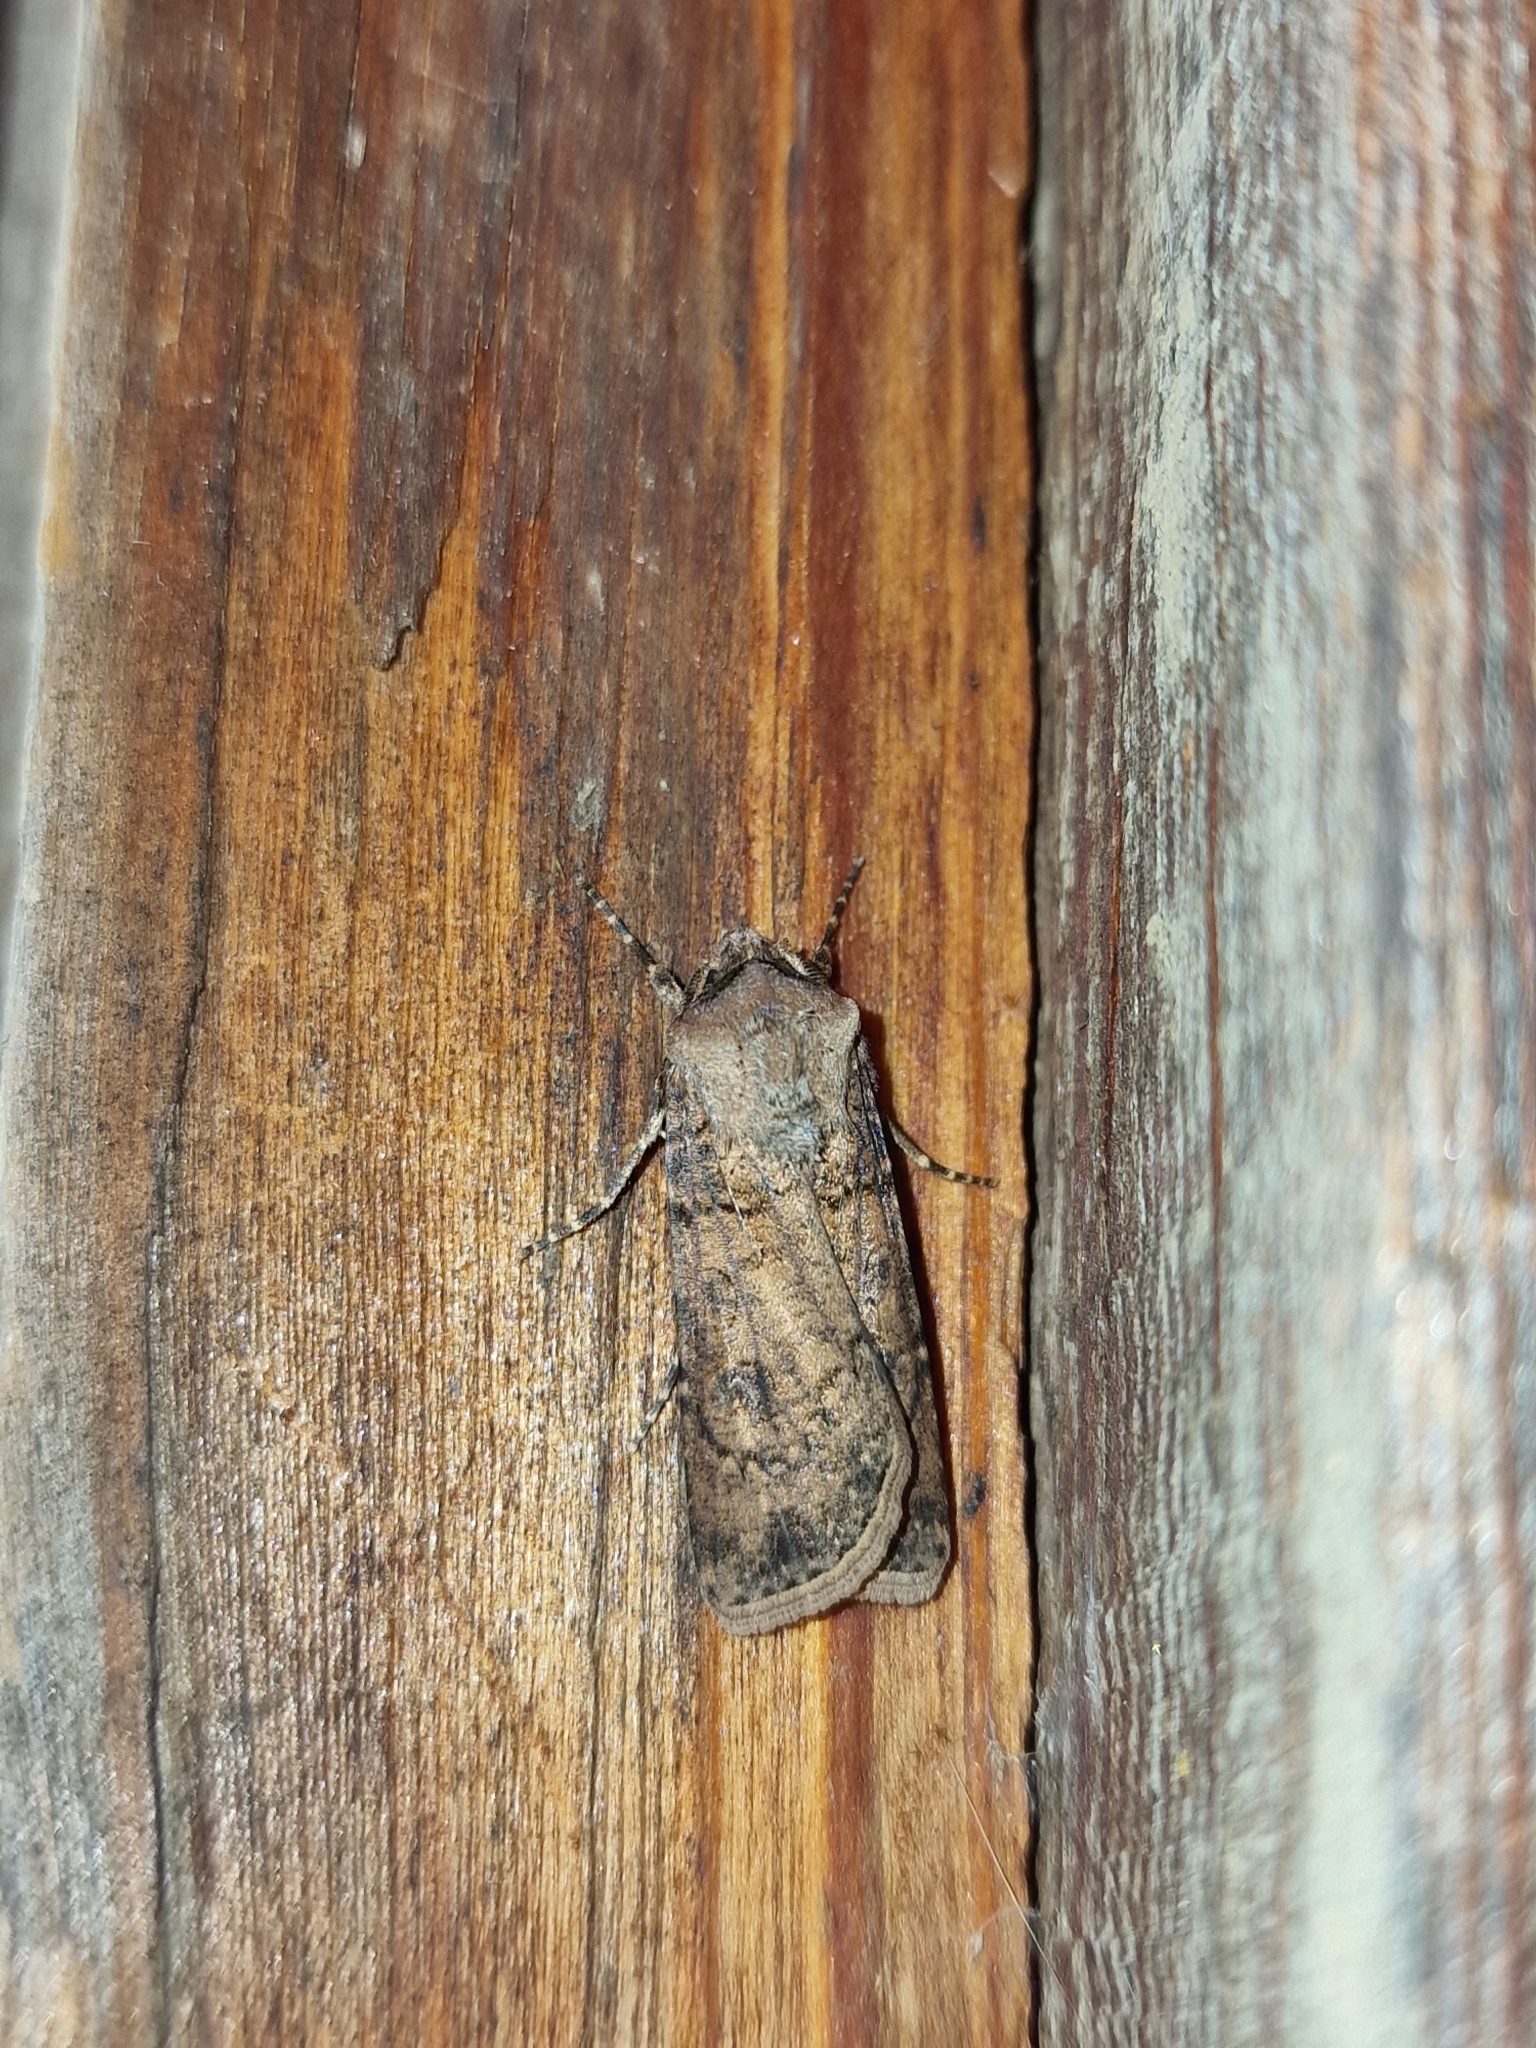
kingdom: Animalia
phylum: Arthropoda
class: Insecta
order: Lepidoptera
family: Noctuidae
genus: Agrotis
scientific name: Agrotis segetum
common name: Turnip moth
